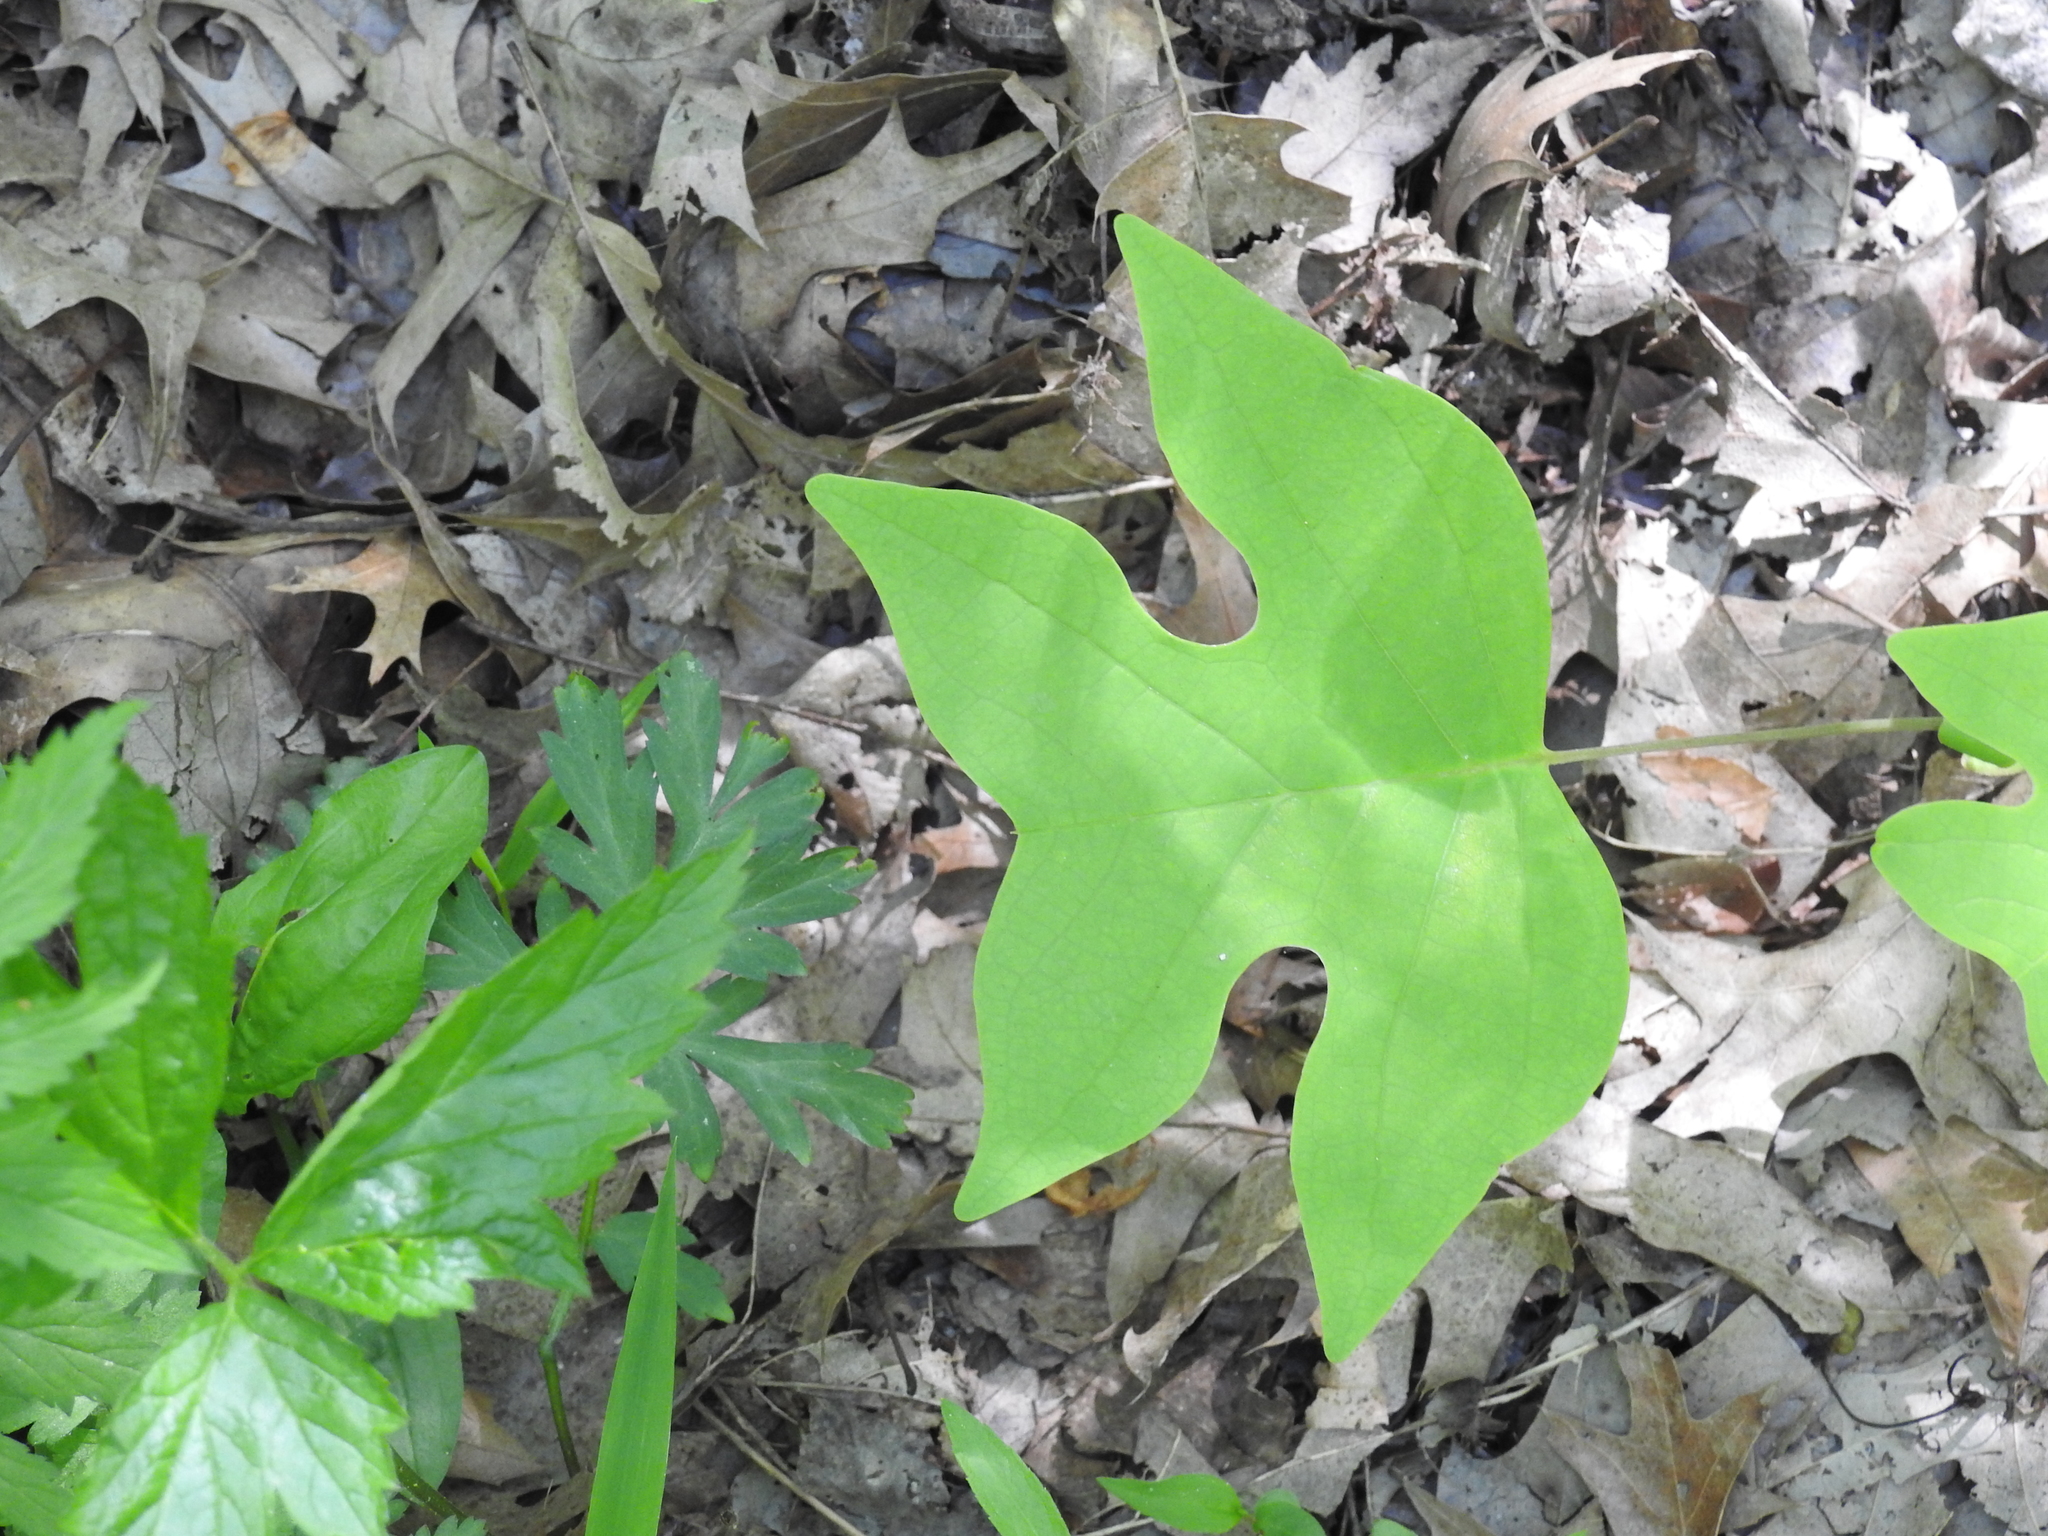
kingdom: Plantae
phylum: Tracheophyta
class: Magnoliopsida
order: Magnoliales
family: Magnoliaceae
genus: Liriodendron
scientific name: Liriodendron tulipifera
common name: Tulip tree
